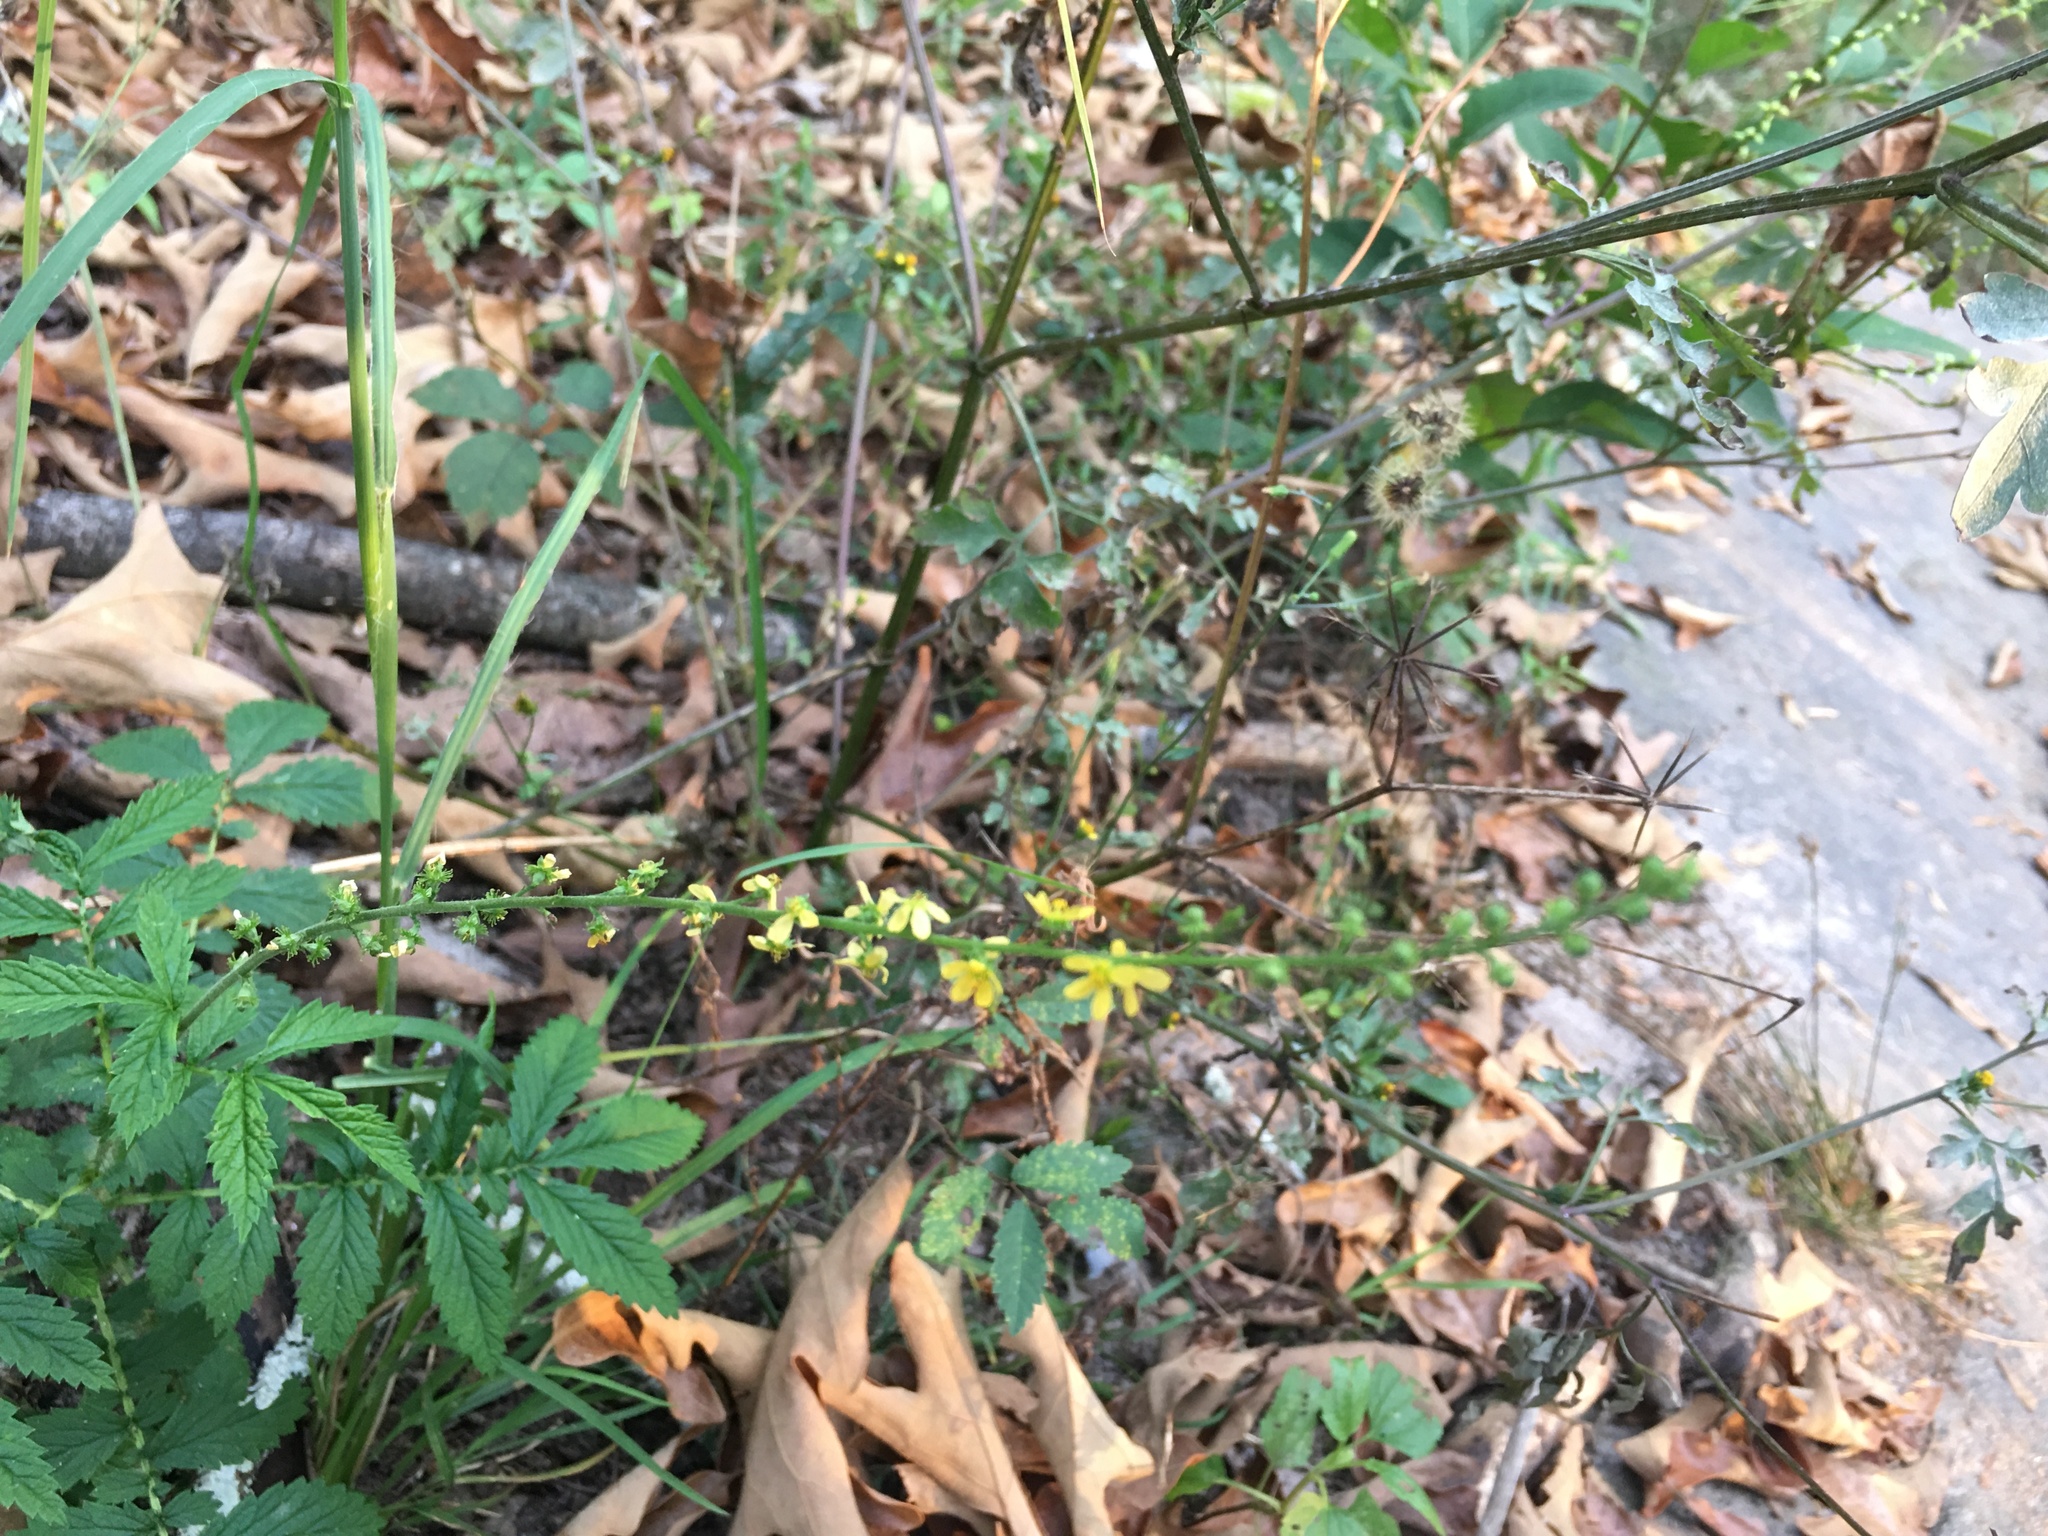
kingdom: Plantae
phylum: Tracheophyta
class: Magnoliopsida
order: Rosales
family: Rosaceae
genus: Agrimonia
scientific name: Agrimonia parviflora
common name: Harvest-lice
